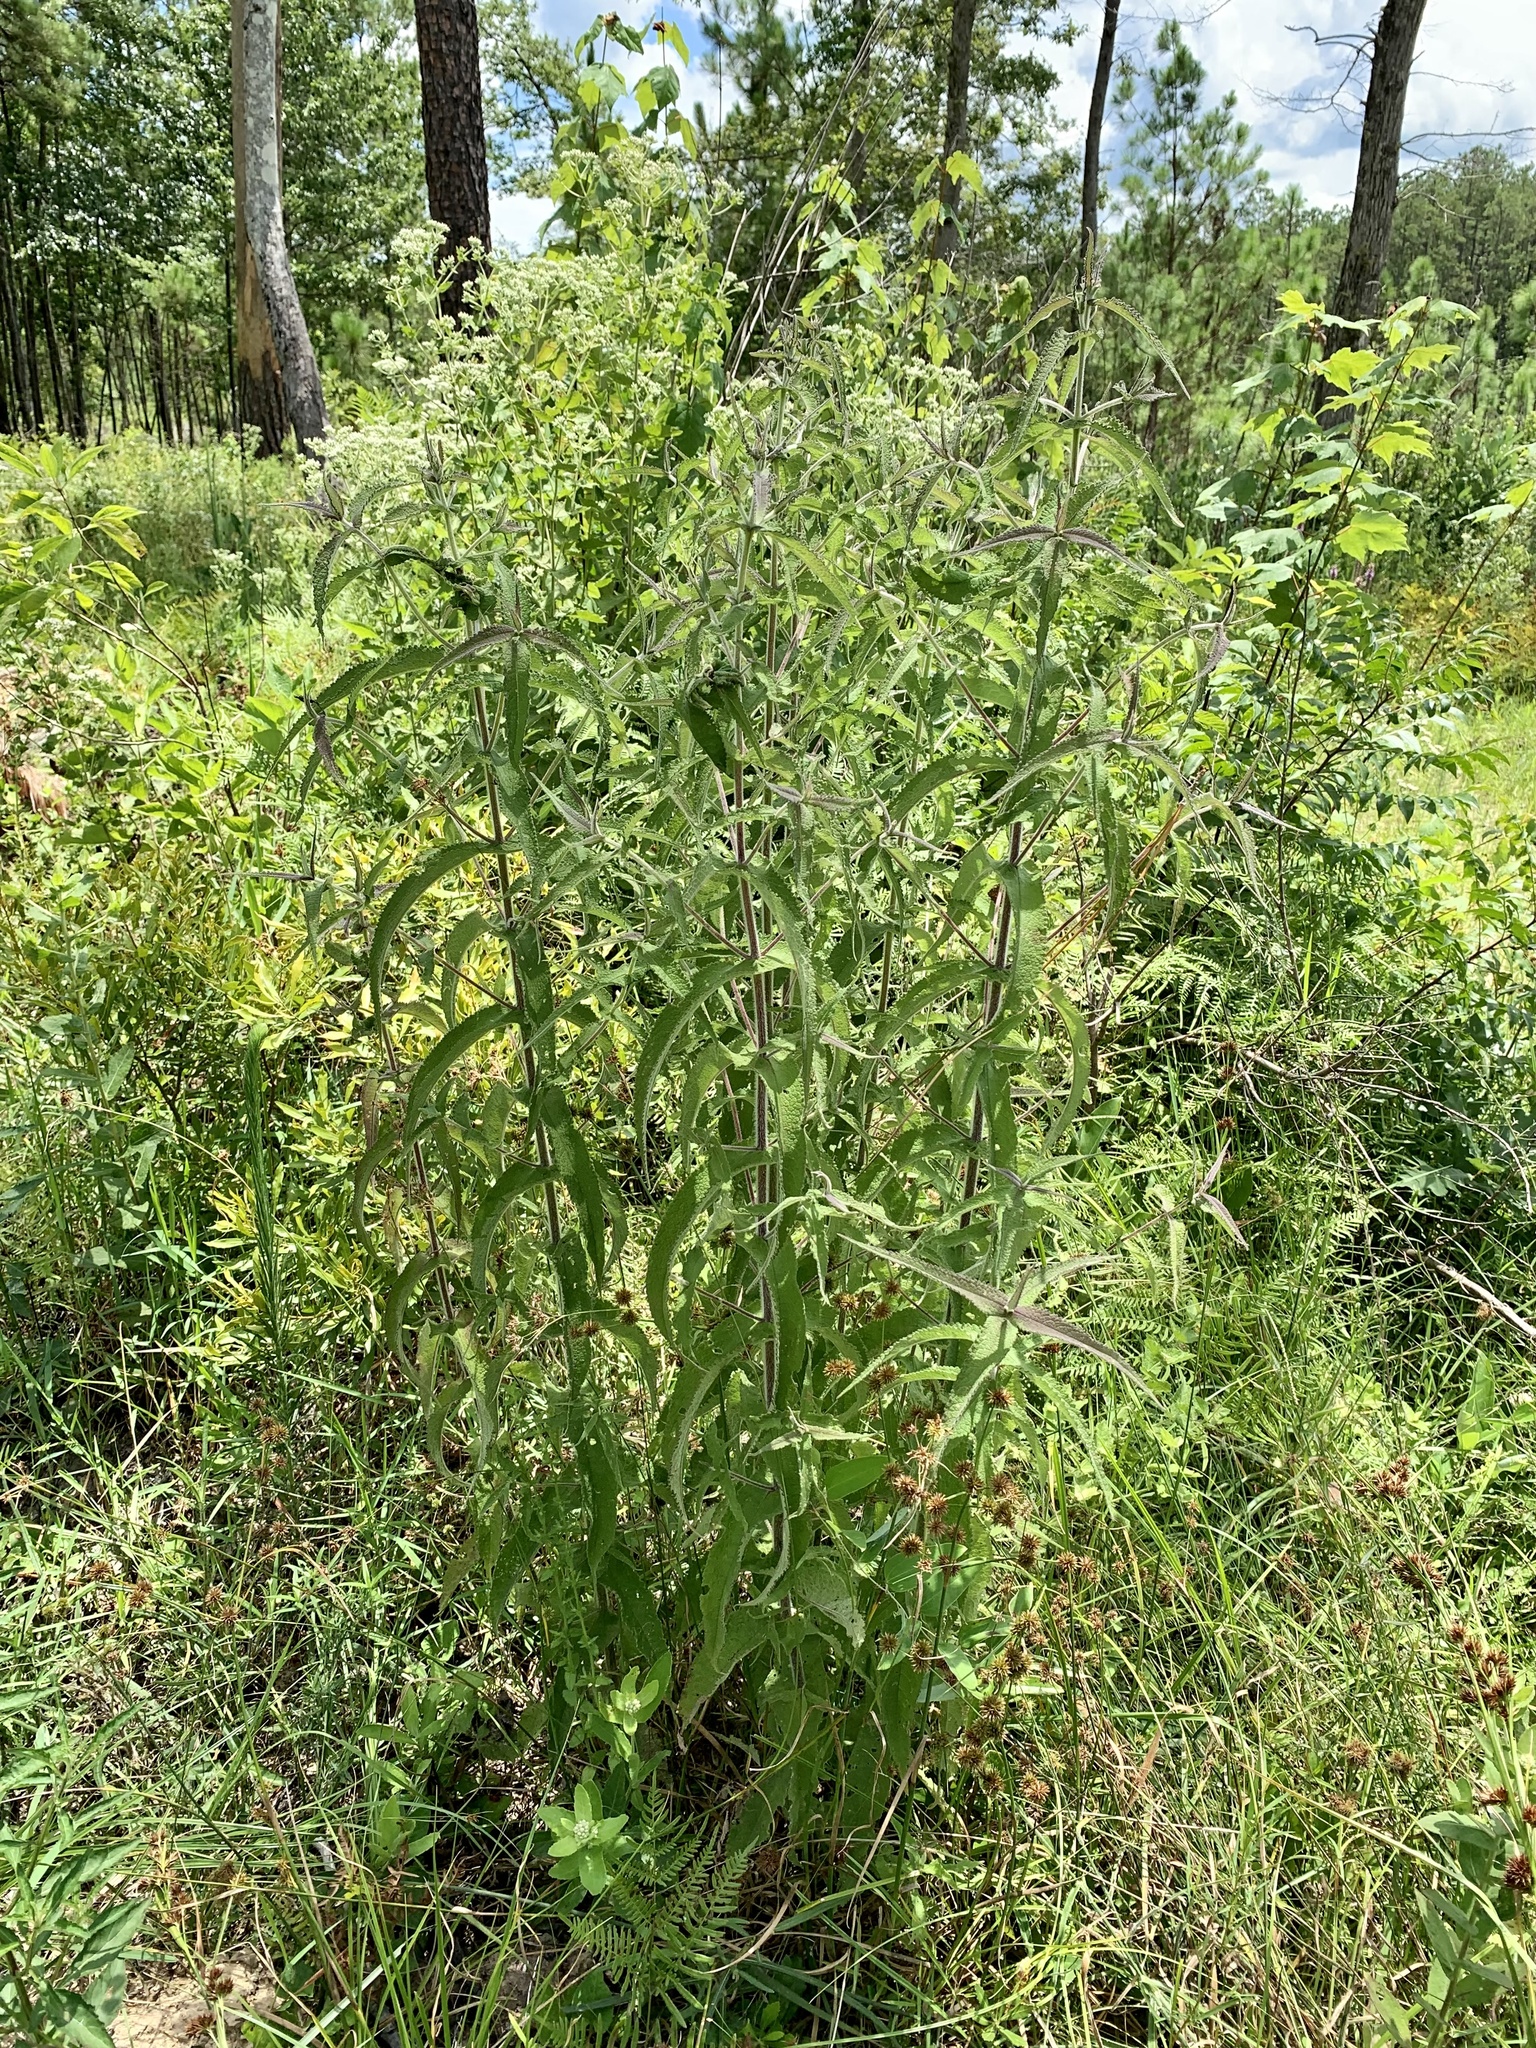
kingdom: Plantae
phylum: Tracheophyta
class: Magnoliopsida
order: Asterales
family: Asteraceae
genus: Eupatorium
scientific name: Eupatorium perfoliatum
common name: Boneset
